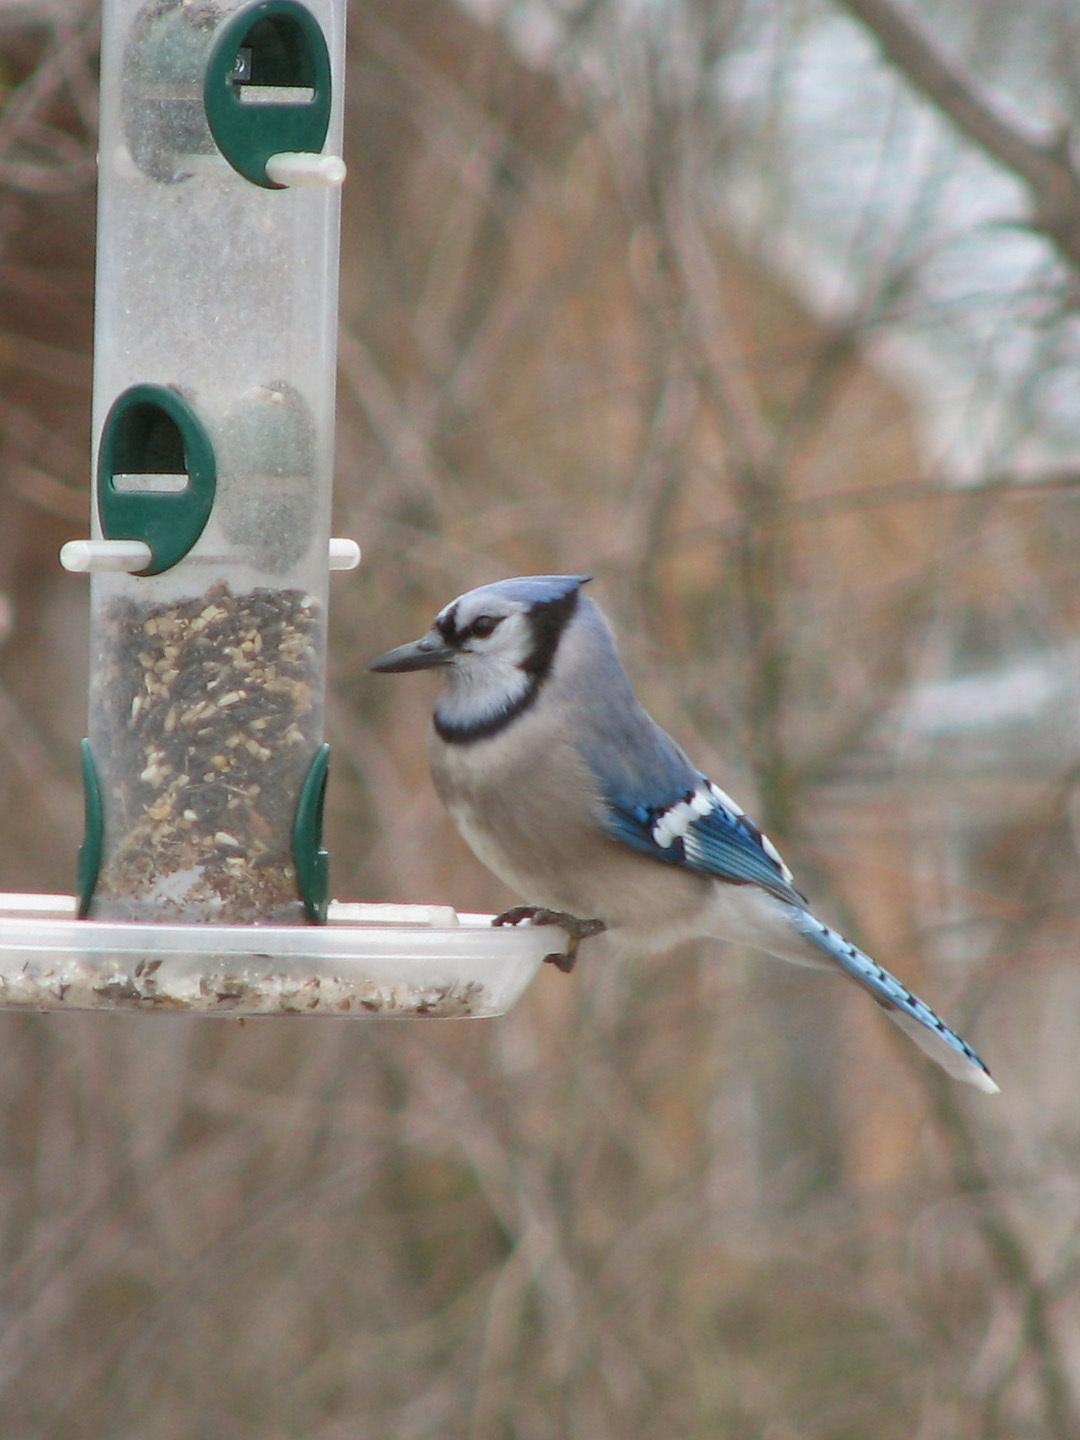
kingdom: Animalia
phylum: Chordata
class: Aves
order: Passeriformes
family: Corvidae
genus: Cyanocitta
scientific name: Cyanocitta cristata
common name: Blue jay
